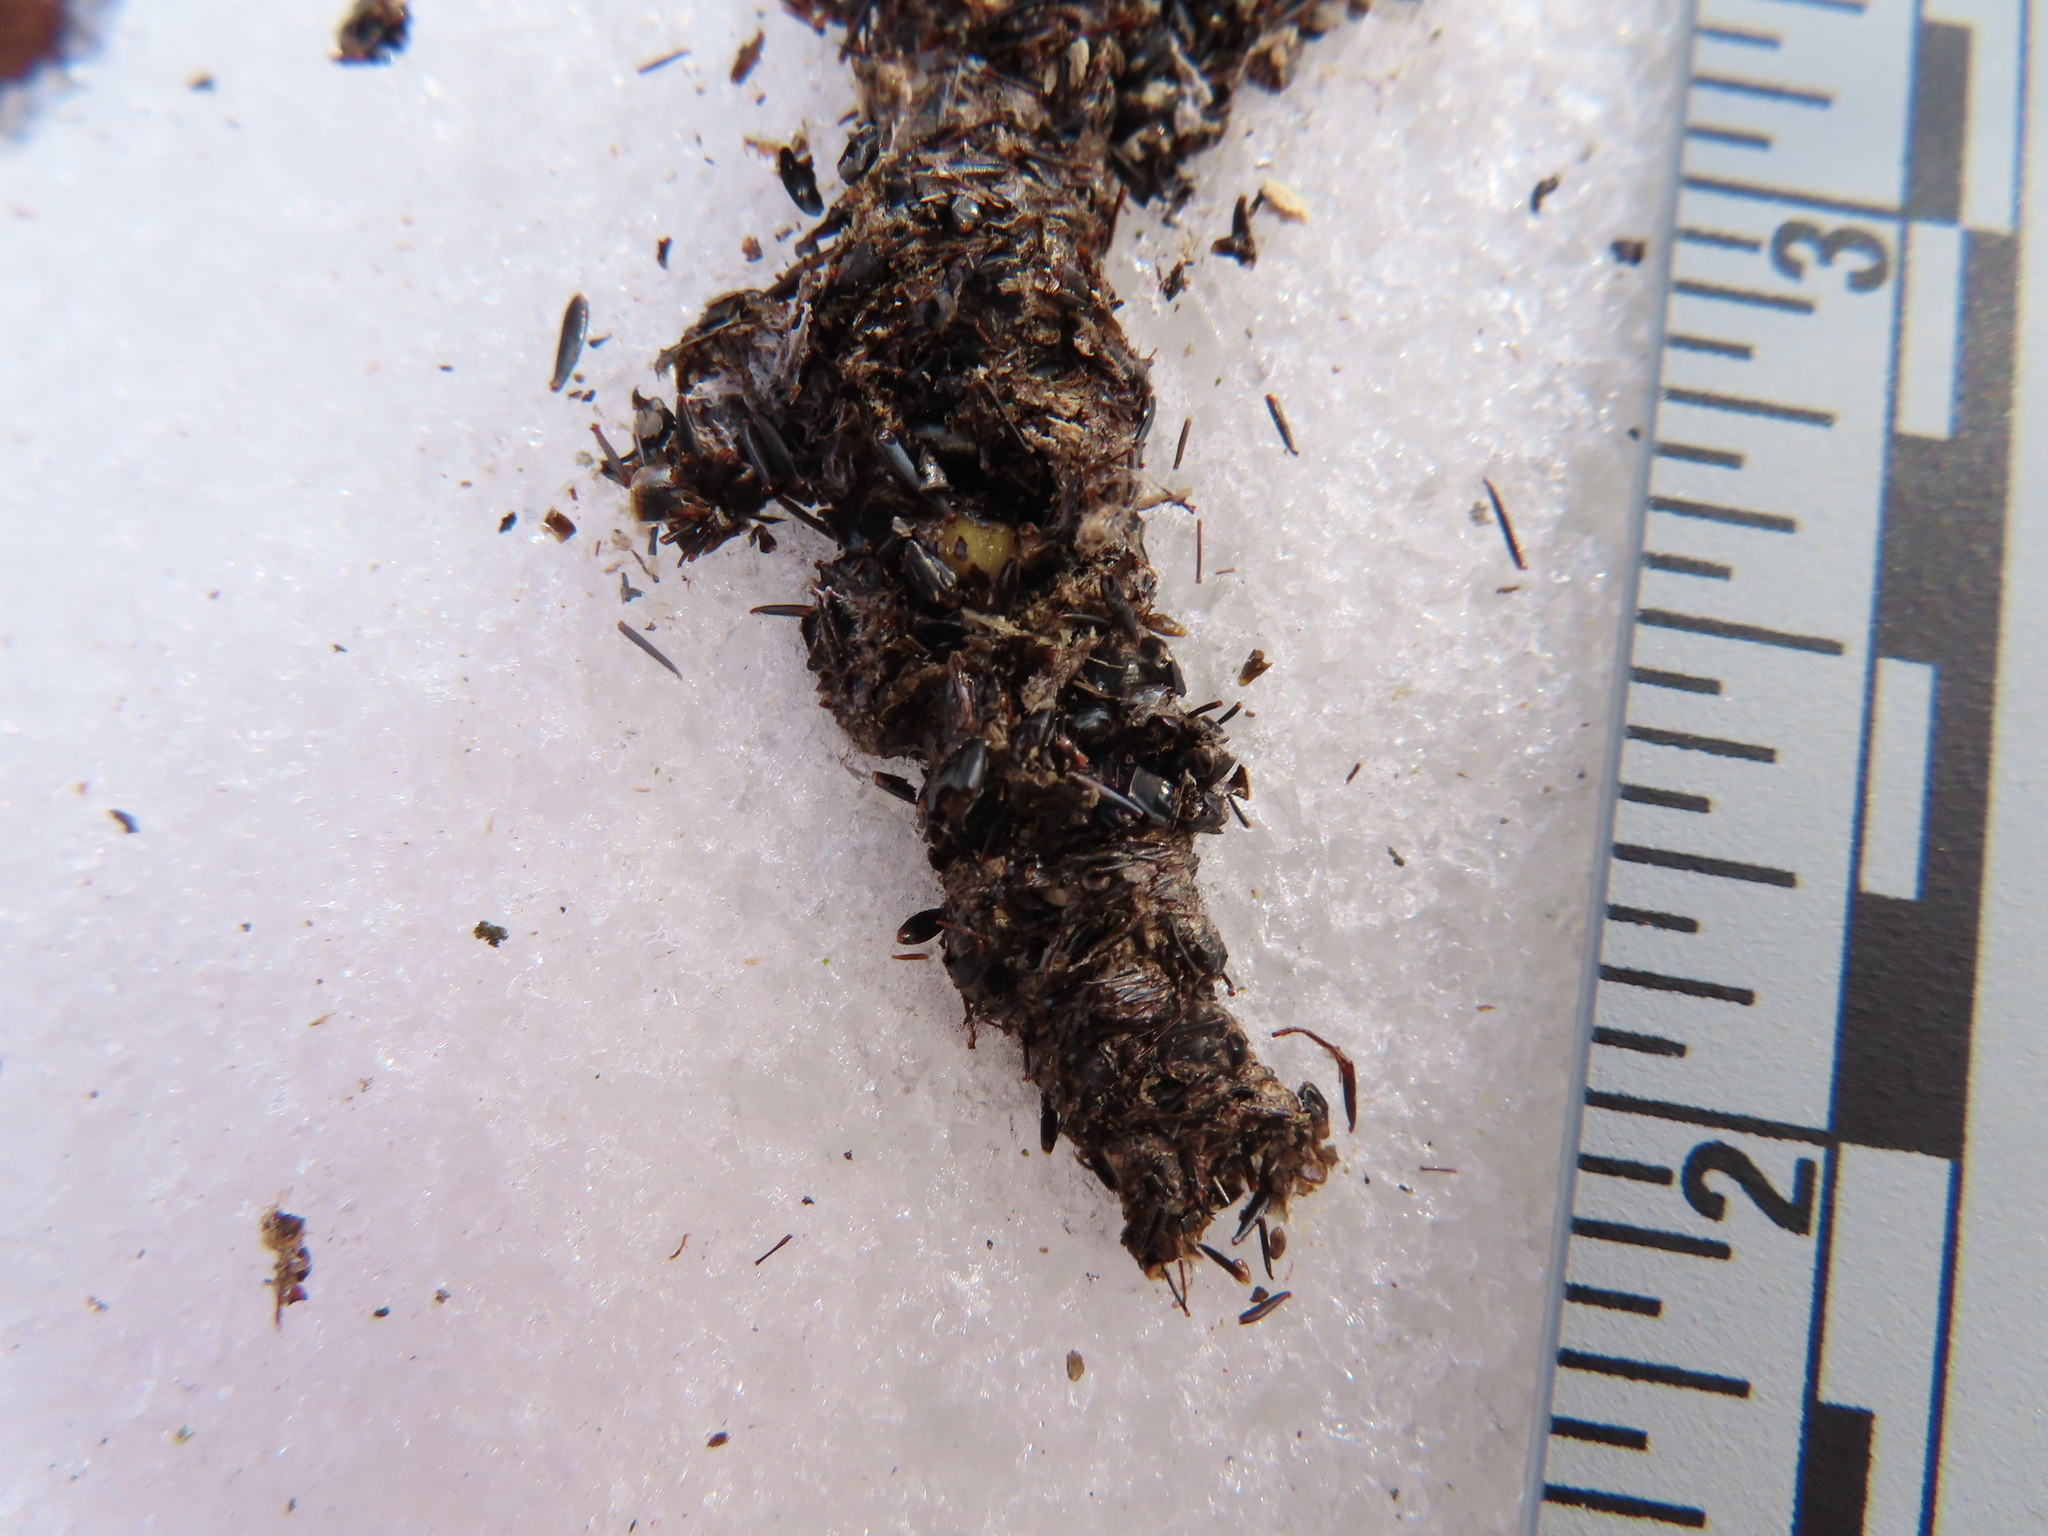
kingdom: Animalia
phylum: Chordata
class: Aves
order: Piciformes
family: Picidae
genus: Dryocopus
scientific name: Dryocopus pileatus
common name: Pileated woodpecker
